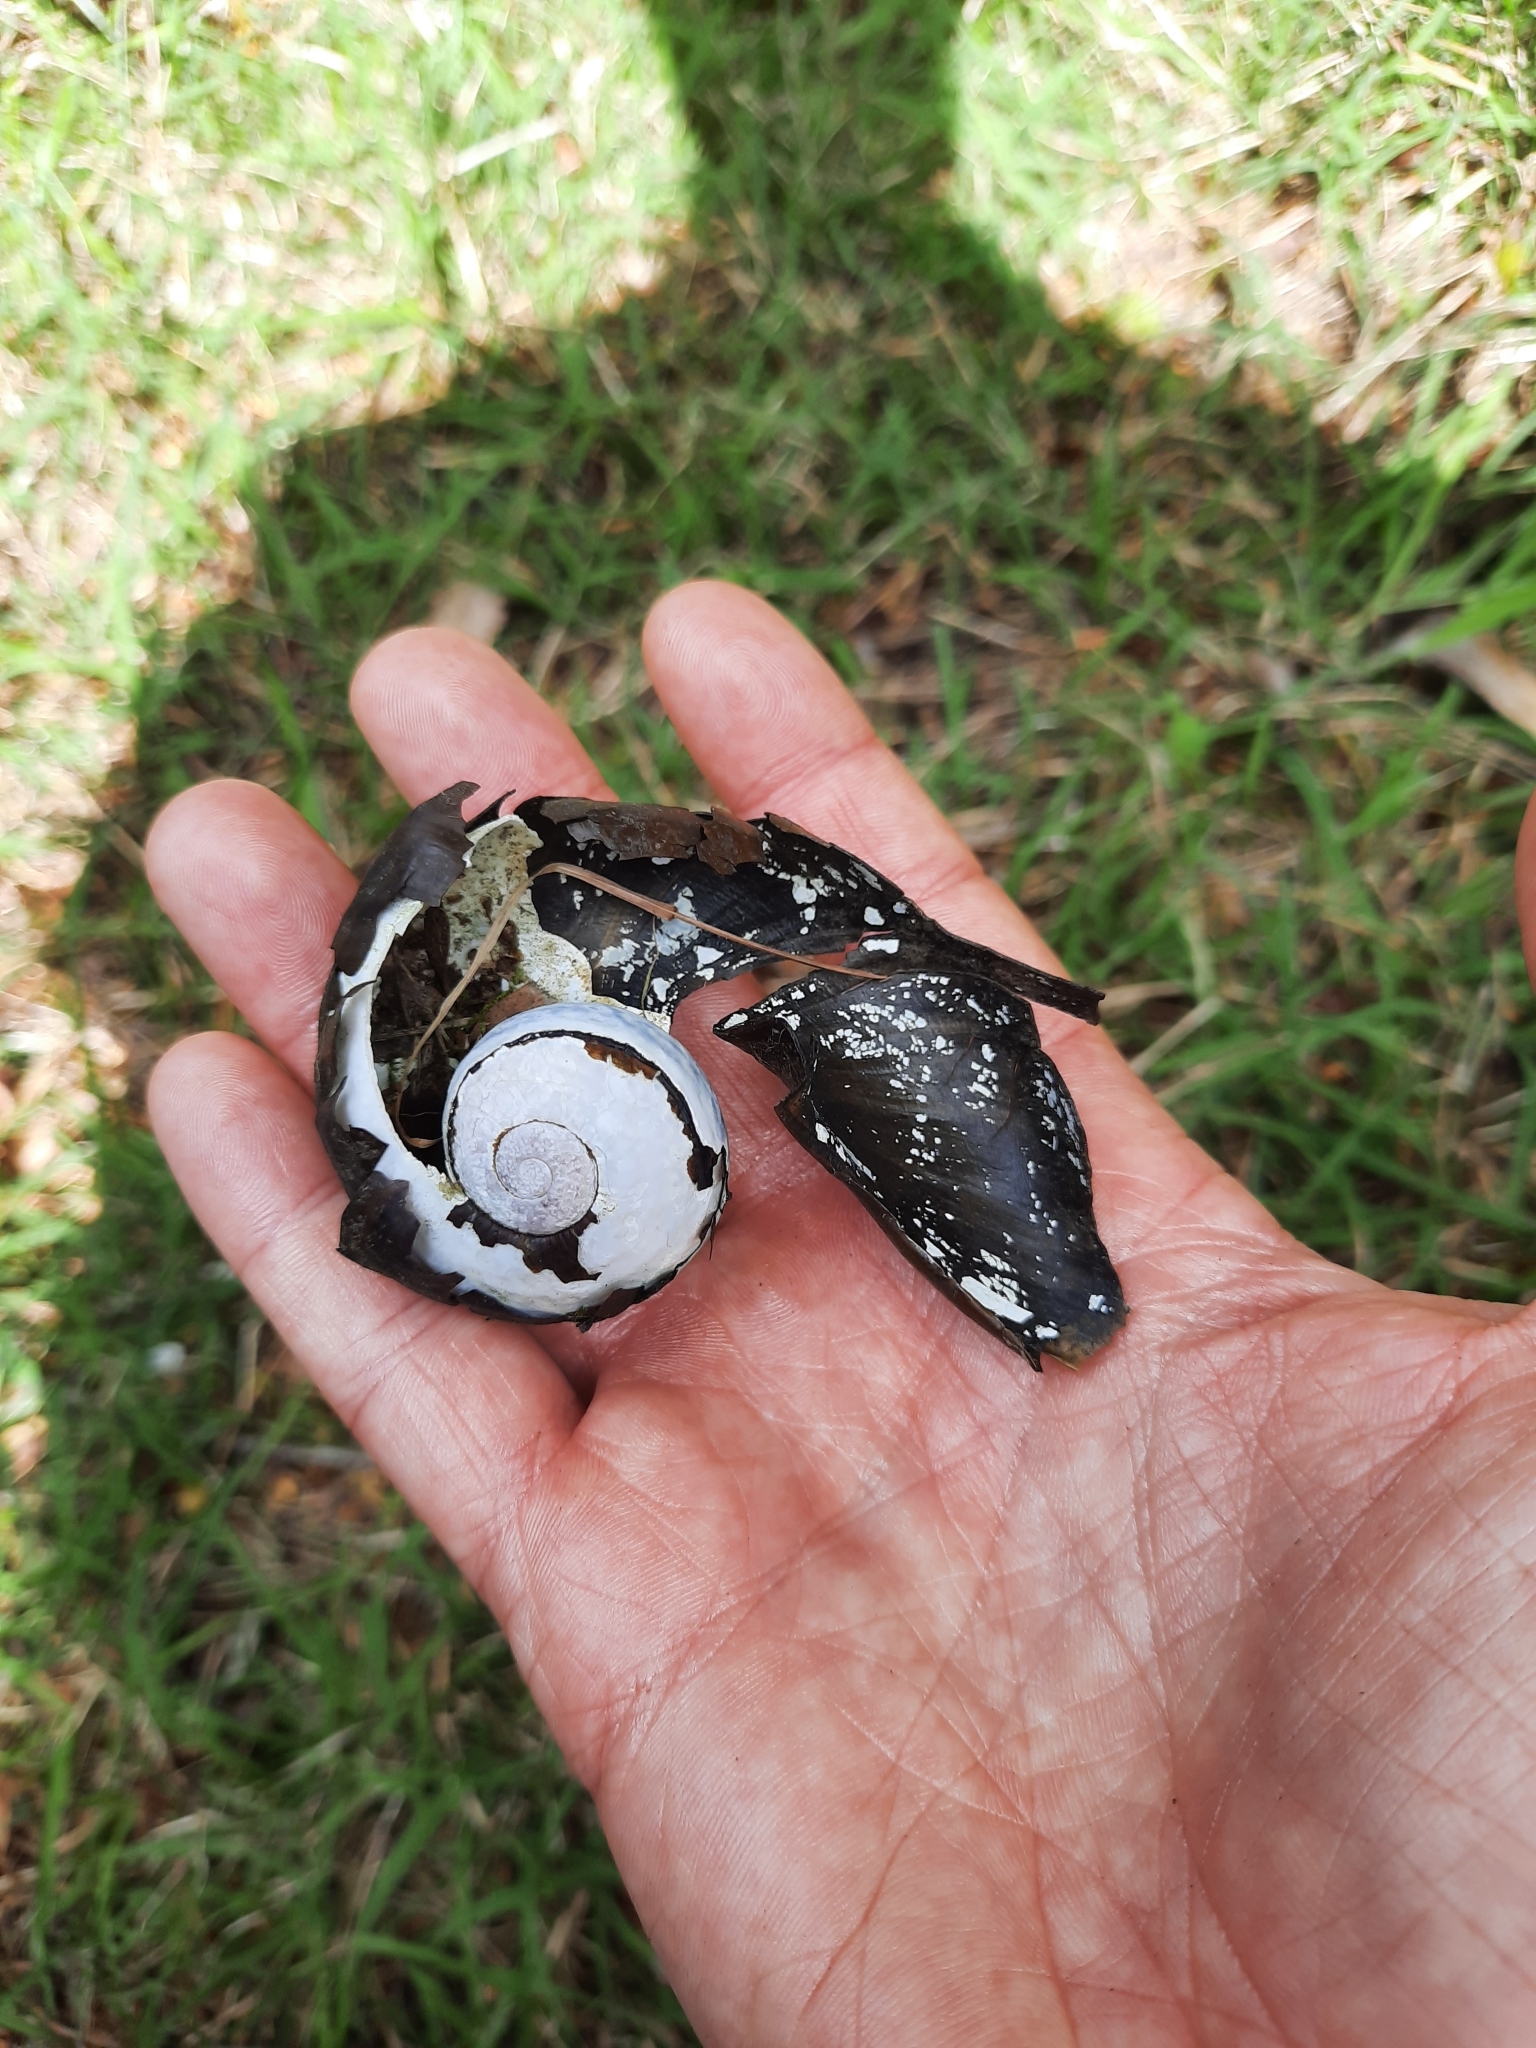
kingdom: Animalia
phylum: Mollusca
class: Gastropoda
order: Stylommatophora
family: Rhytididae
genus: Paryphanta
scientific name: Paryphanta busbyi
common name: Kauri snail
